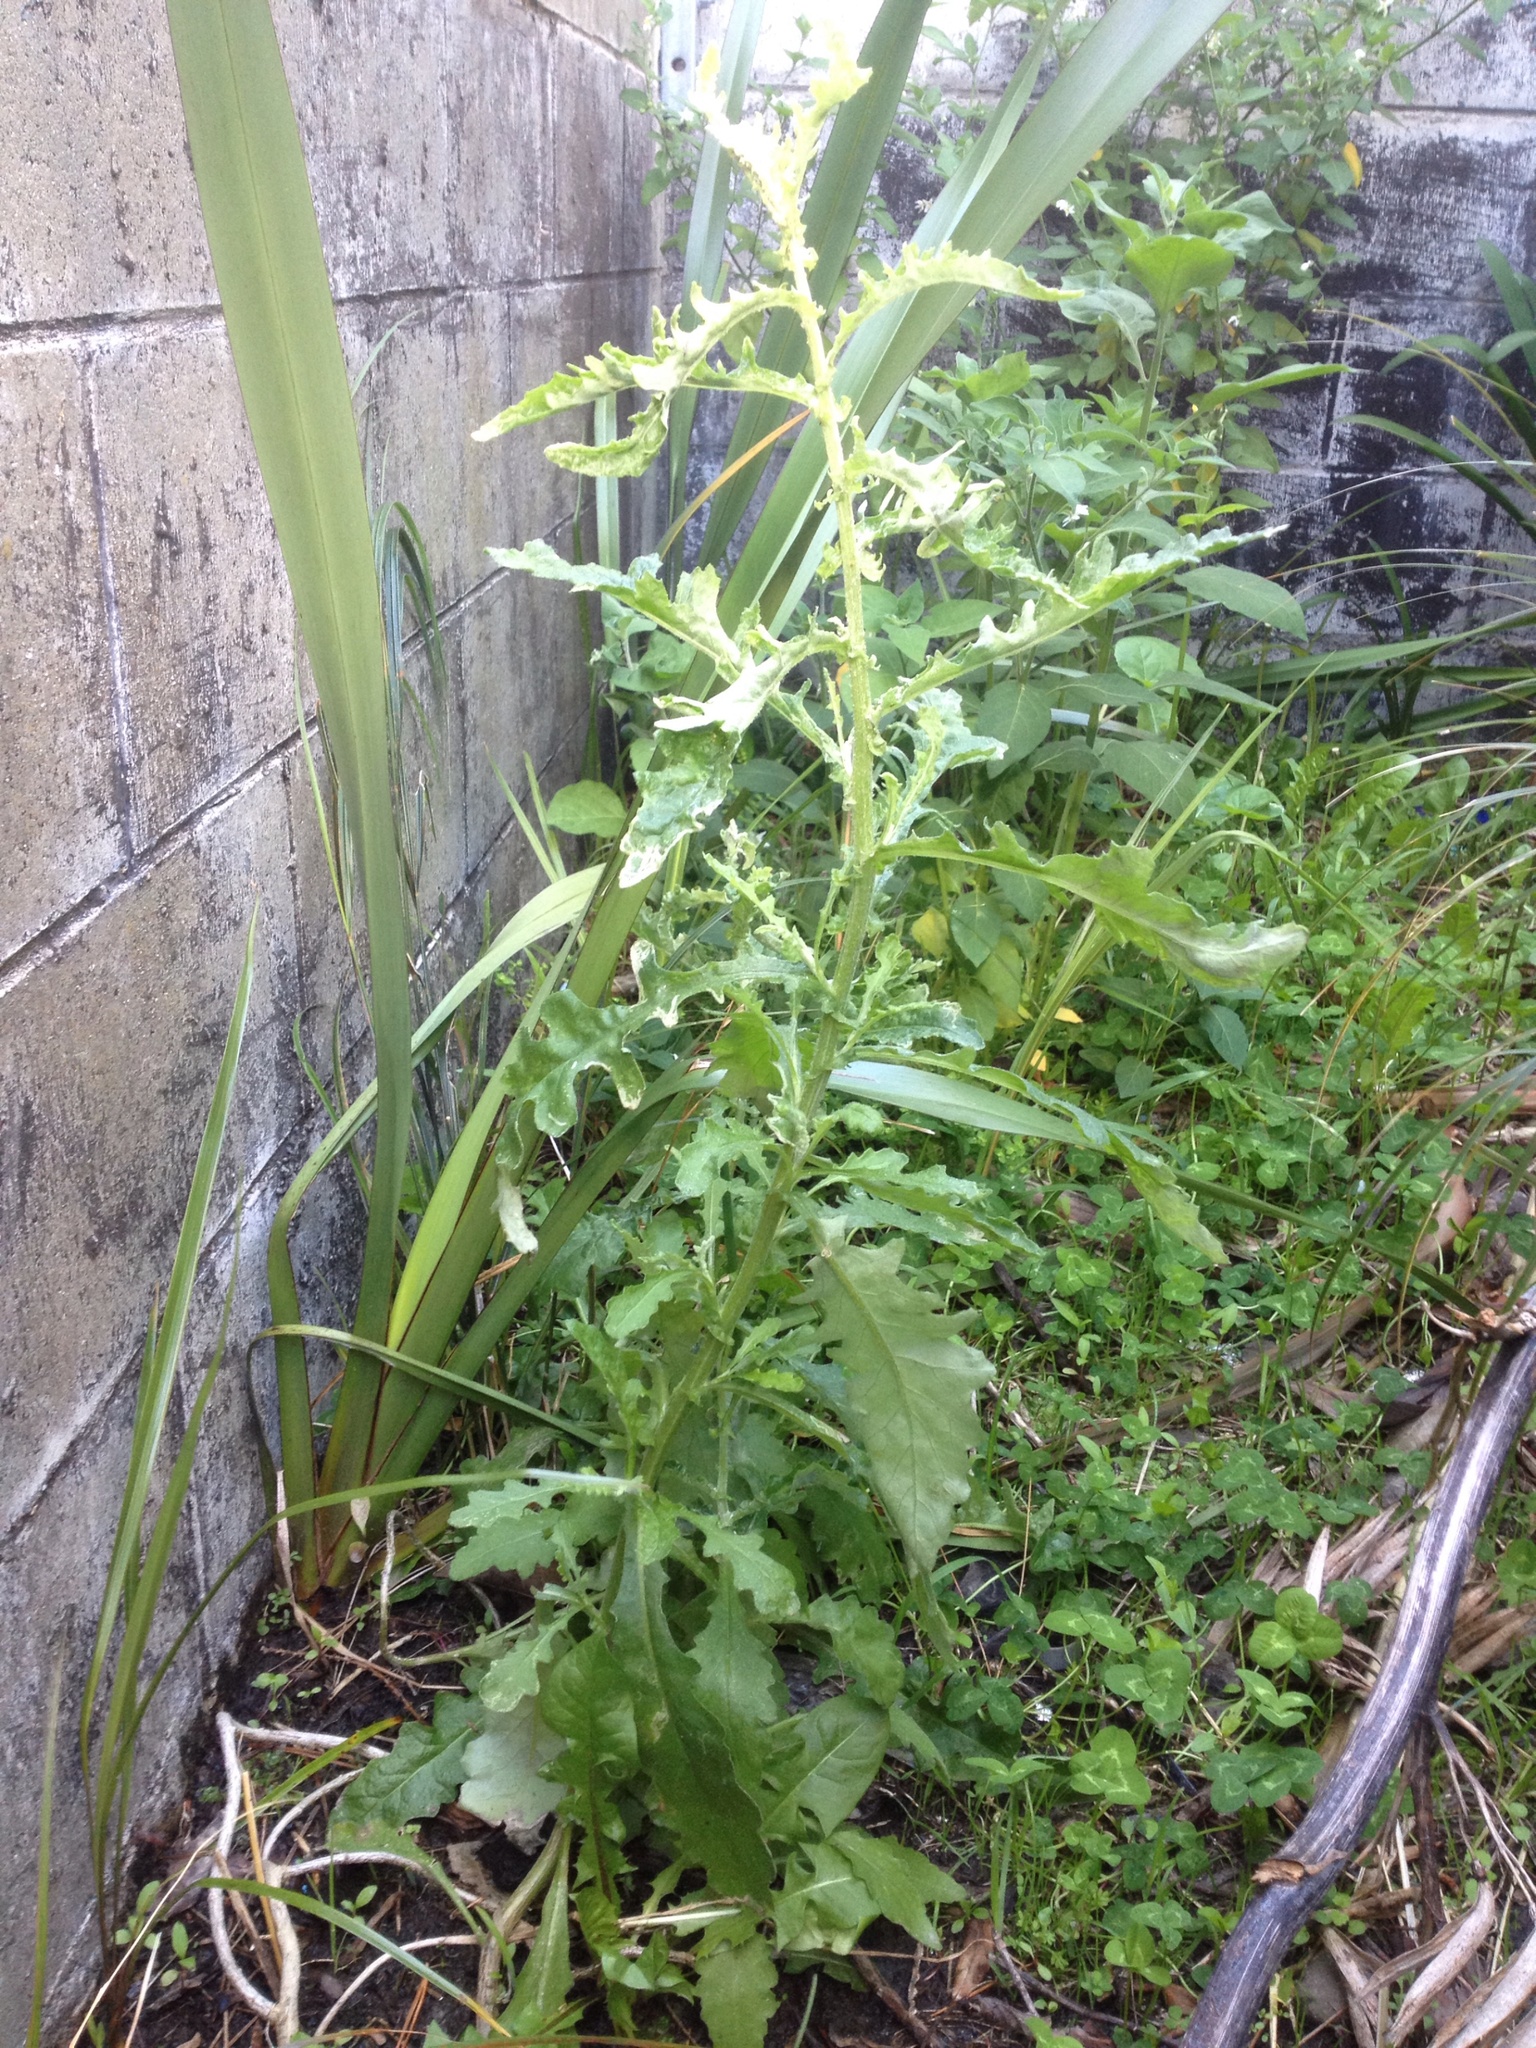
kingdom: Plantae
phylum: Tracheophyta
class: Liliopsida
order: Asparagales
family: Asphodelaceae
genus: Phormium
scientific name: Phormium tenax
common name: New zealand flax
